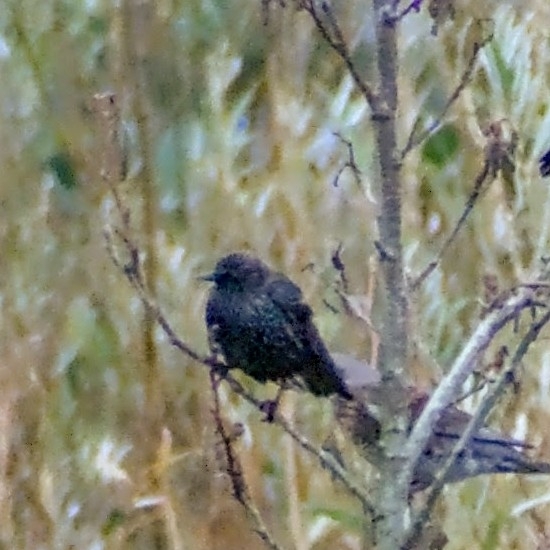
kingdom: Animalia
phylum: Chordata
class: Aves
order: Passeriformes
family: Sturnidae
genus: Sturnus
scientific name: Sturnus vulgaris
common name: Common starling
